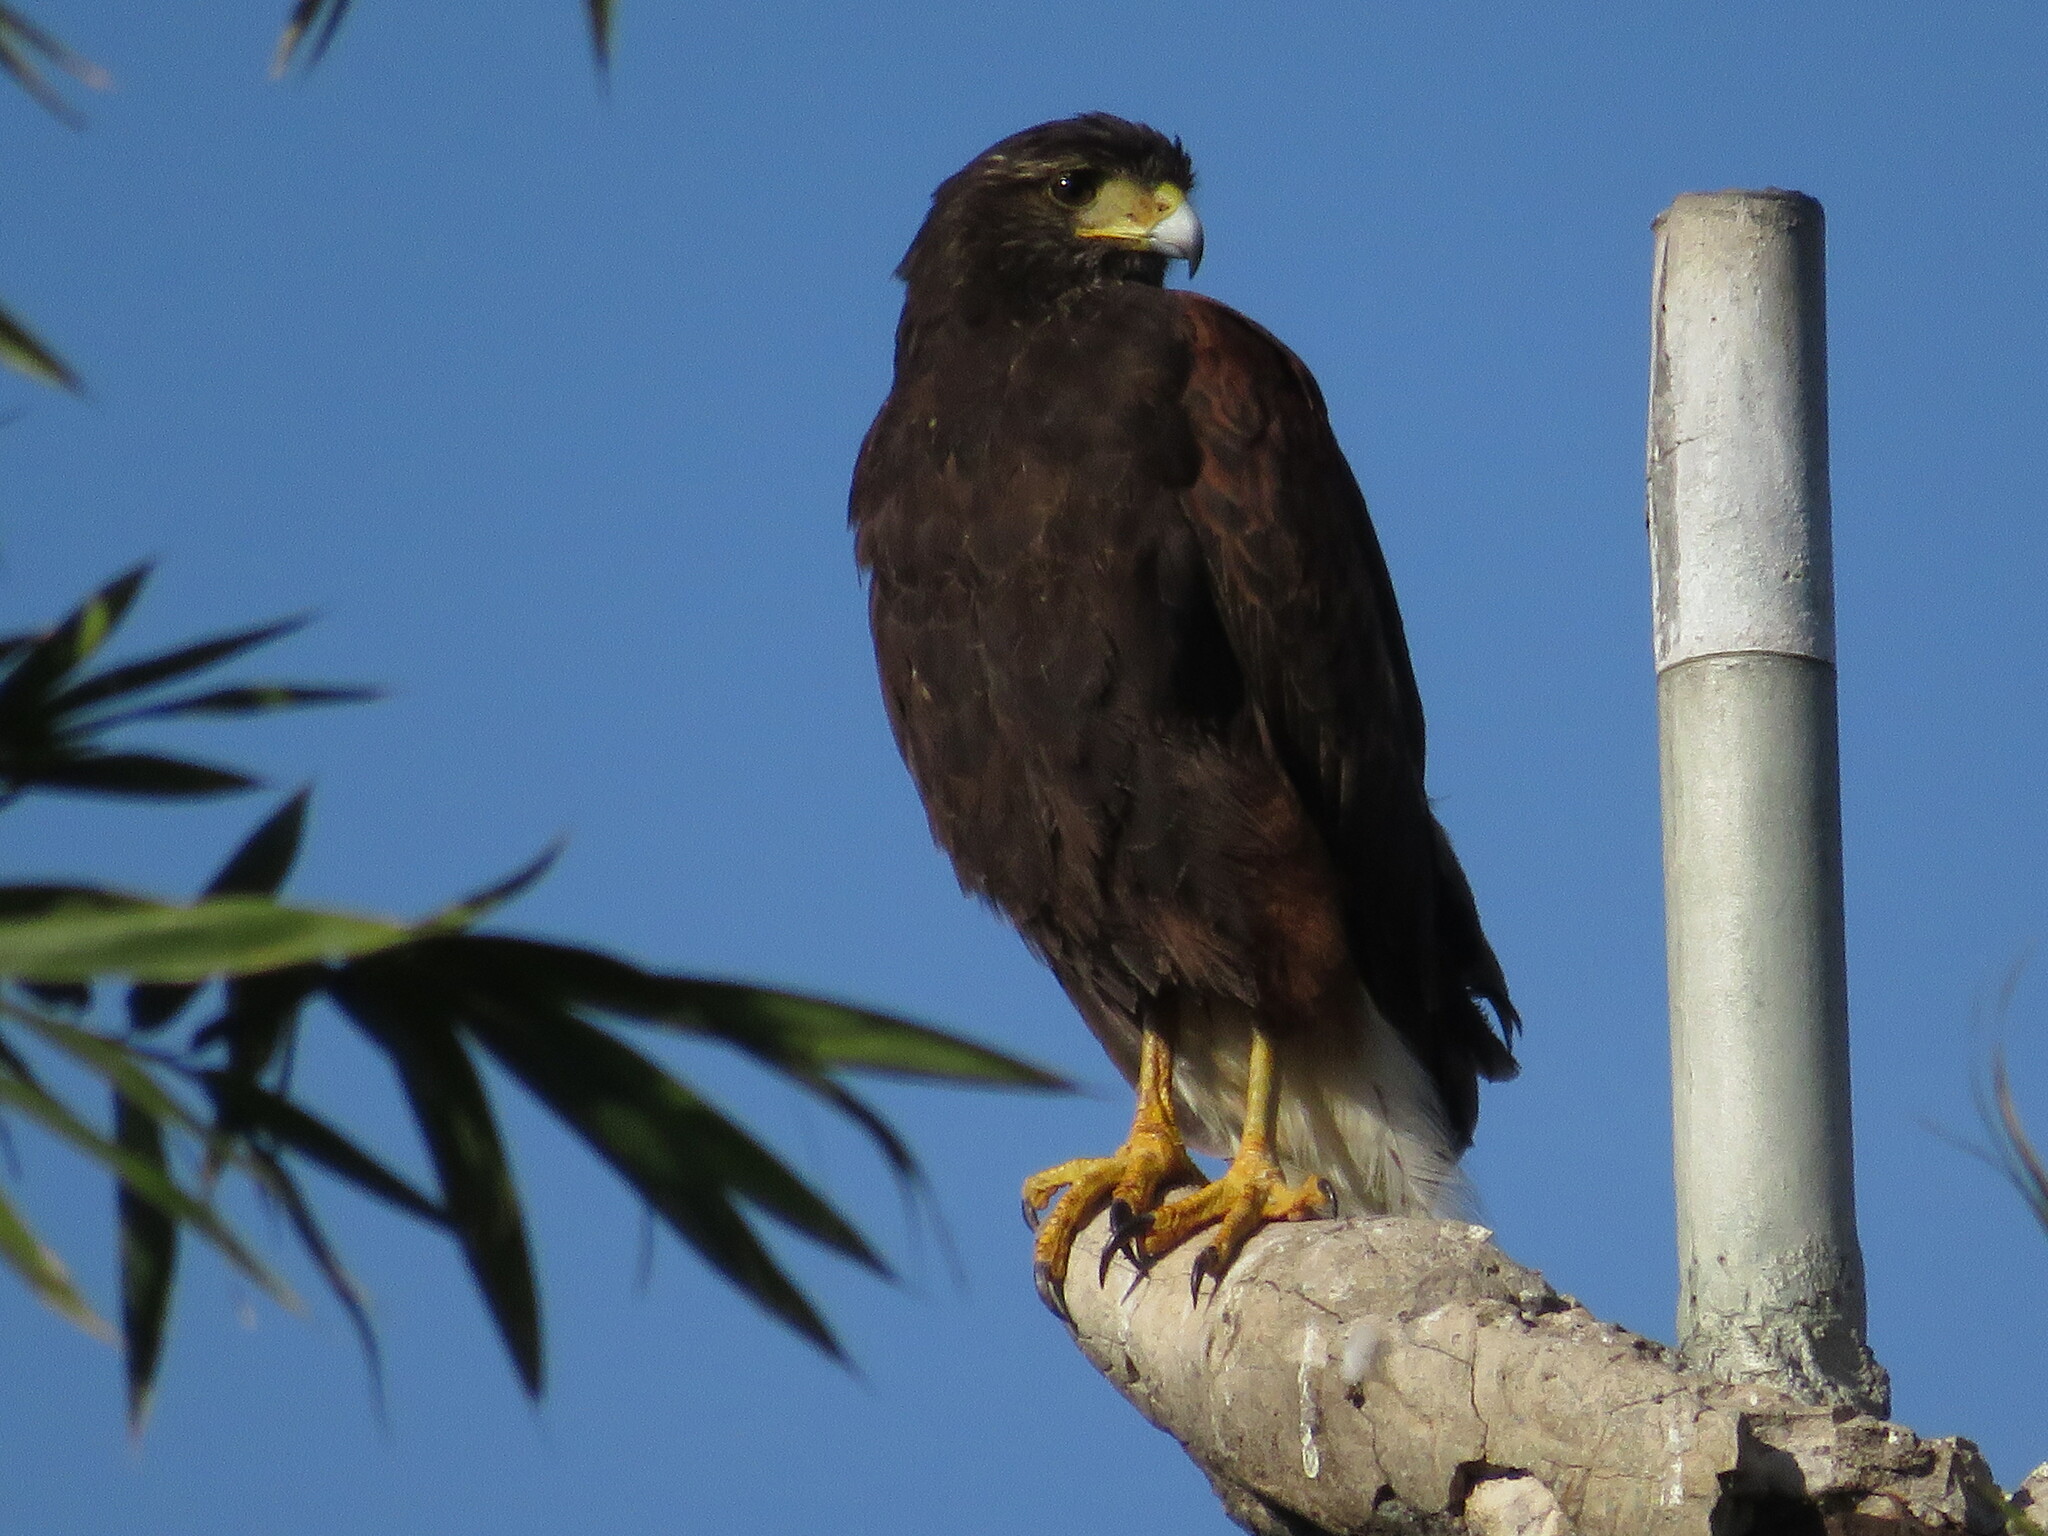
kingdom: Animalia
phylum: Chordata
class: Aves
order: Accipitriformes
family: Accipitridae
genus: Parabuteo
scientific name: Parabuteo unicinctus
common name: Harris's hawk
